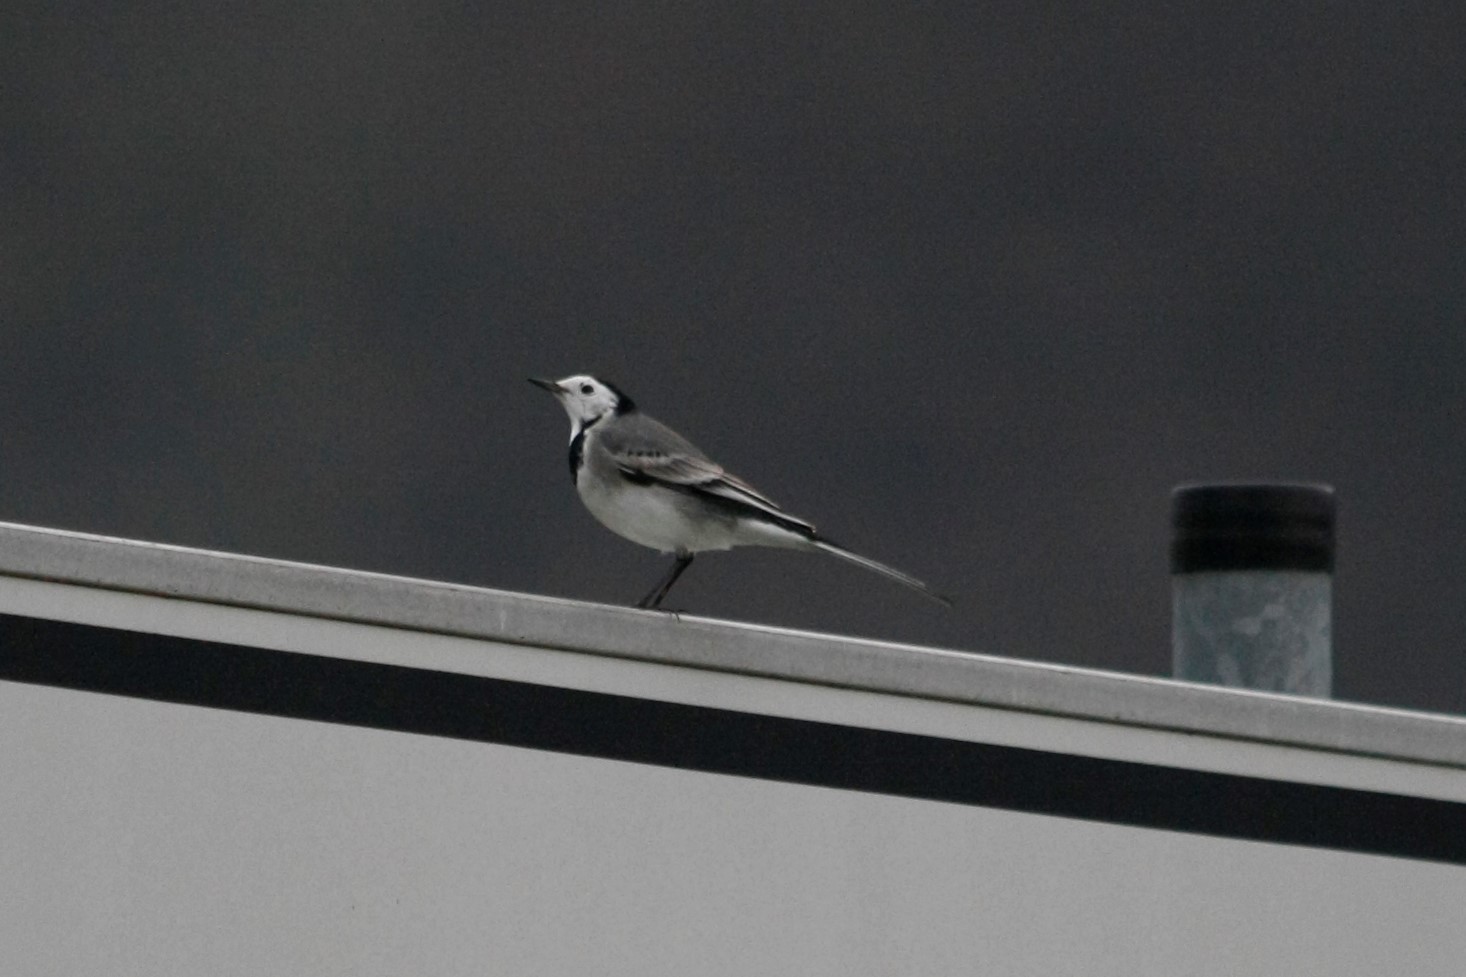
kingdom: Animalia
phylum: Chordata
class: Aves
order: Passeriformes
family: Motacillidae
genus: Motacilla
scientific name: Motacilla alba
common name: White wagtail
